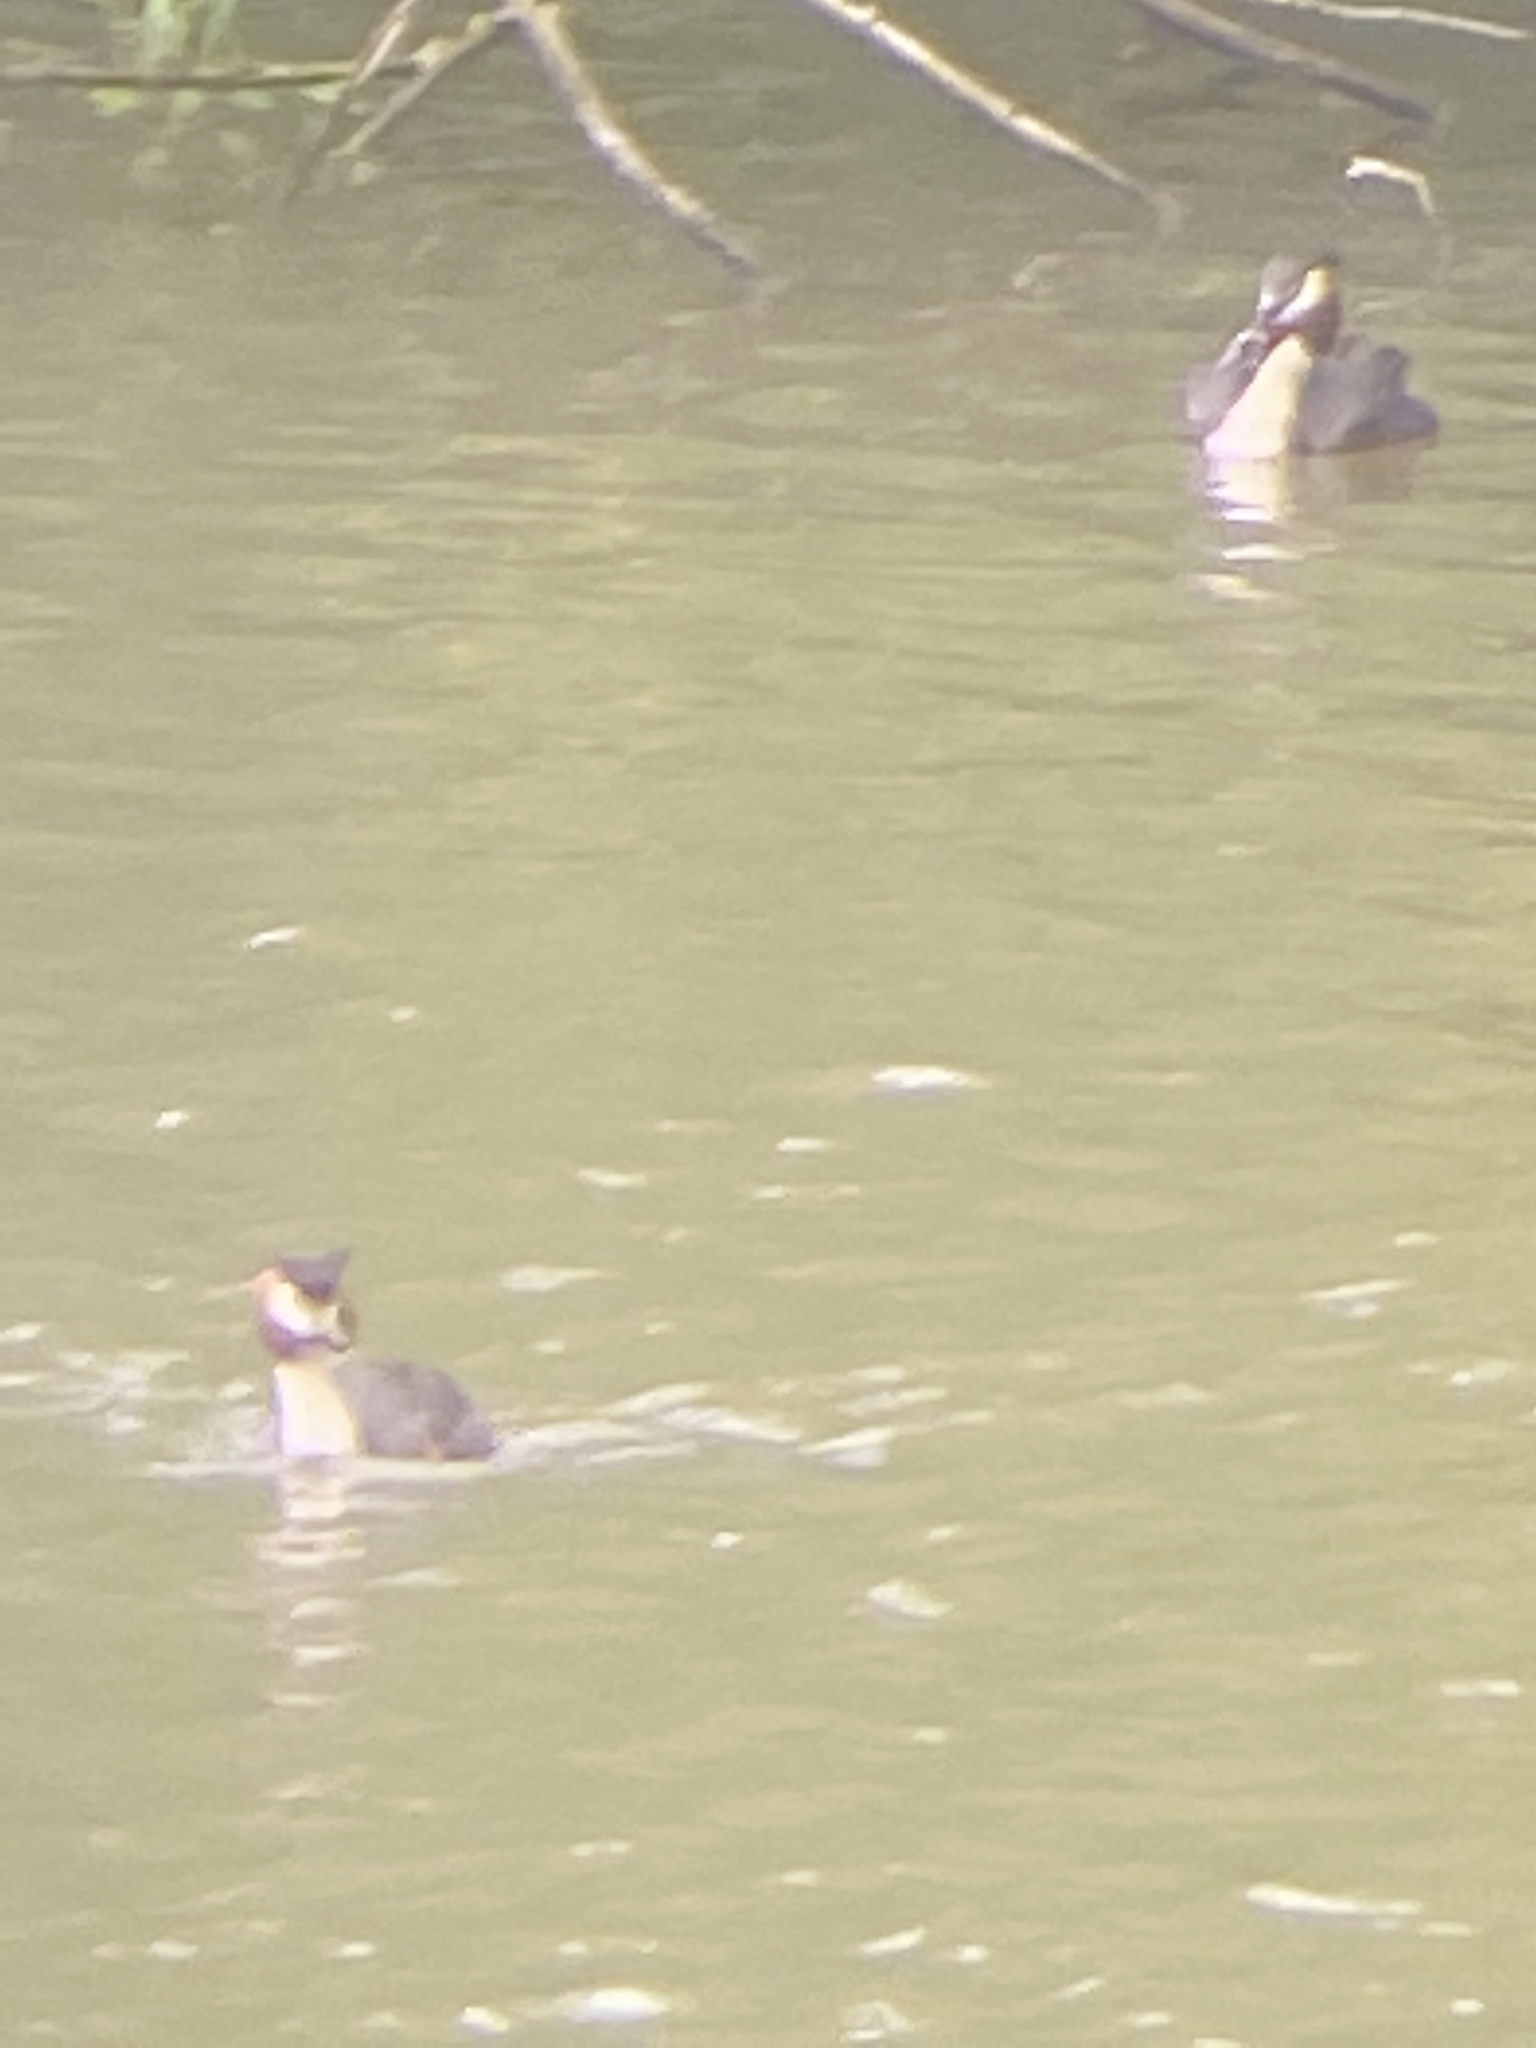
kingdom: Animalia
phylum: Chordata
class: Aves
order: Podicipediformes
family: Podicipedidae
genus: Podiceps
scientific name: Podiceps cristatus
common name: Great crested grebe
